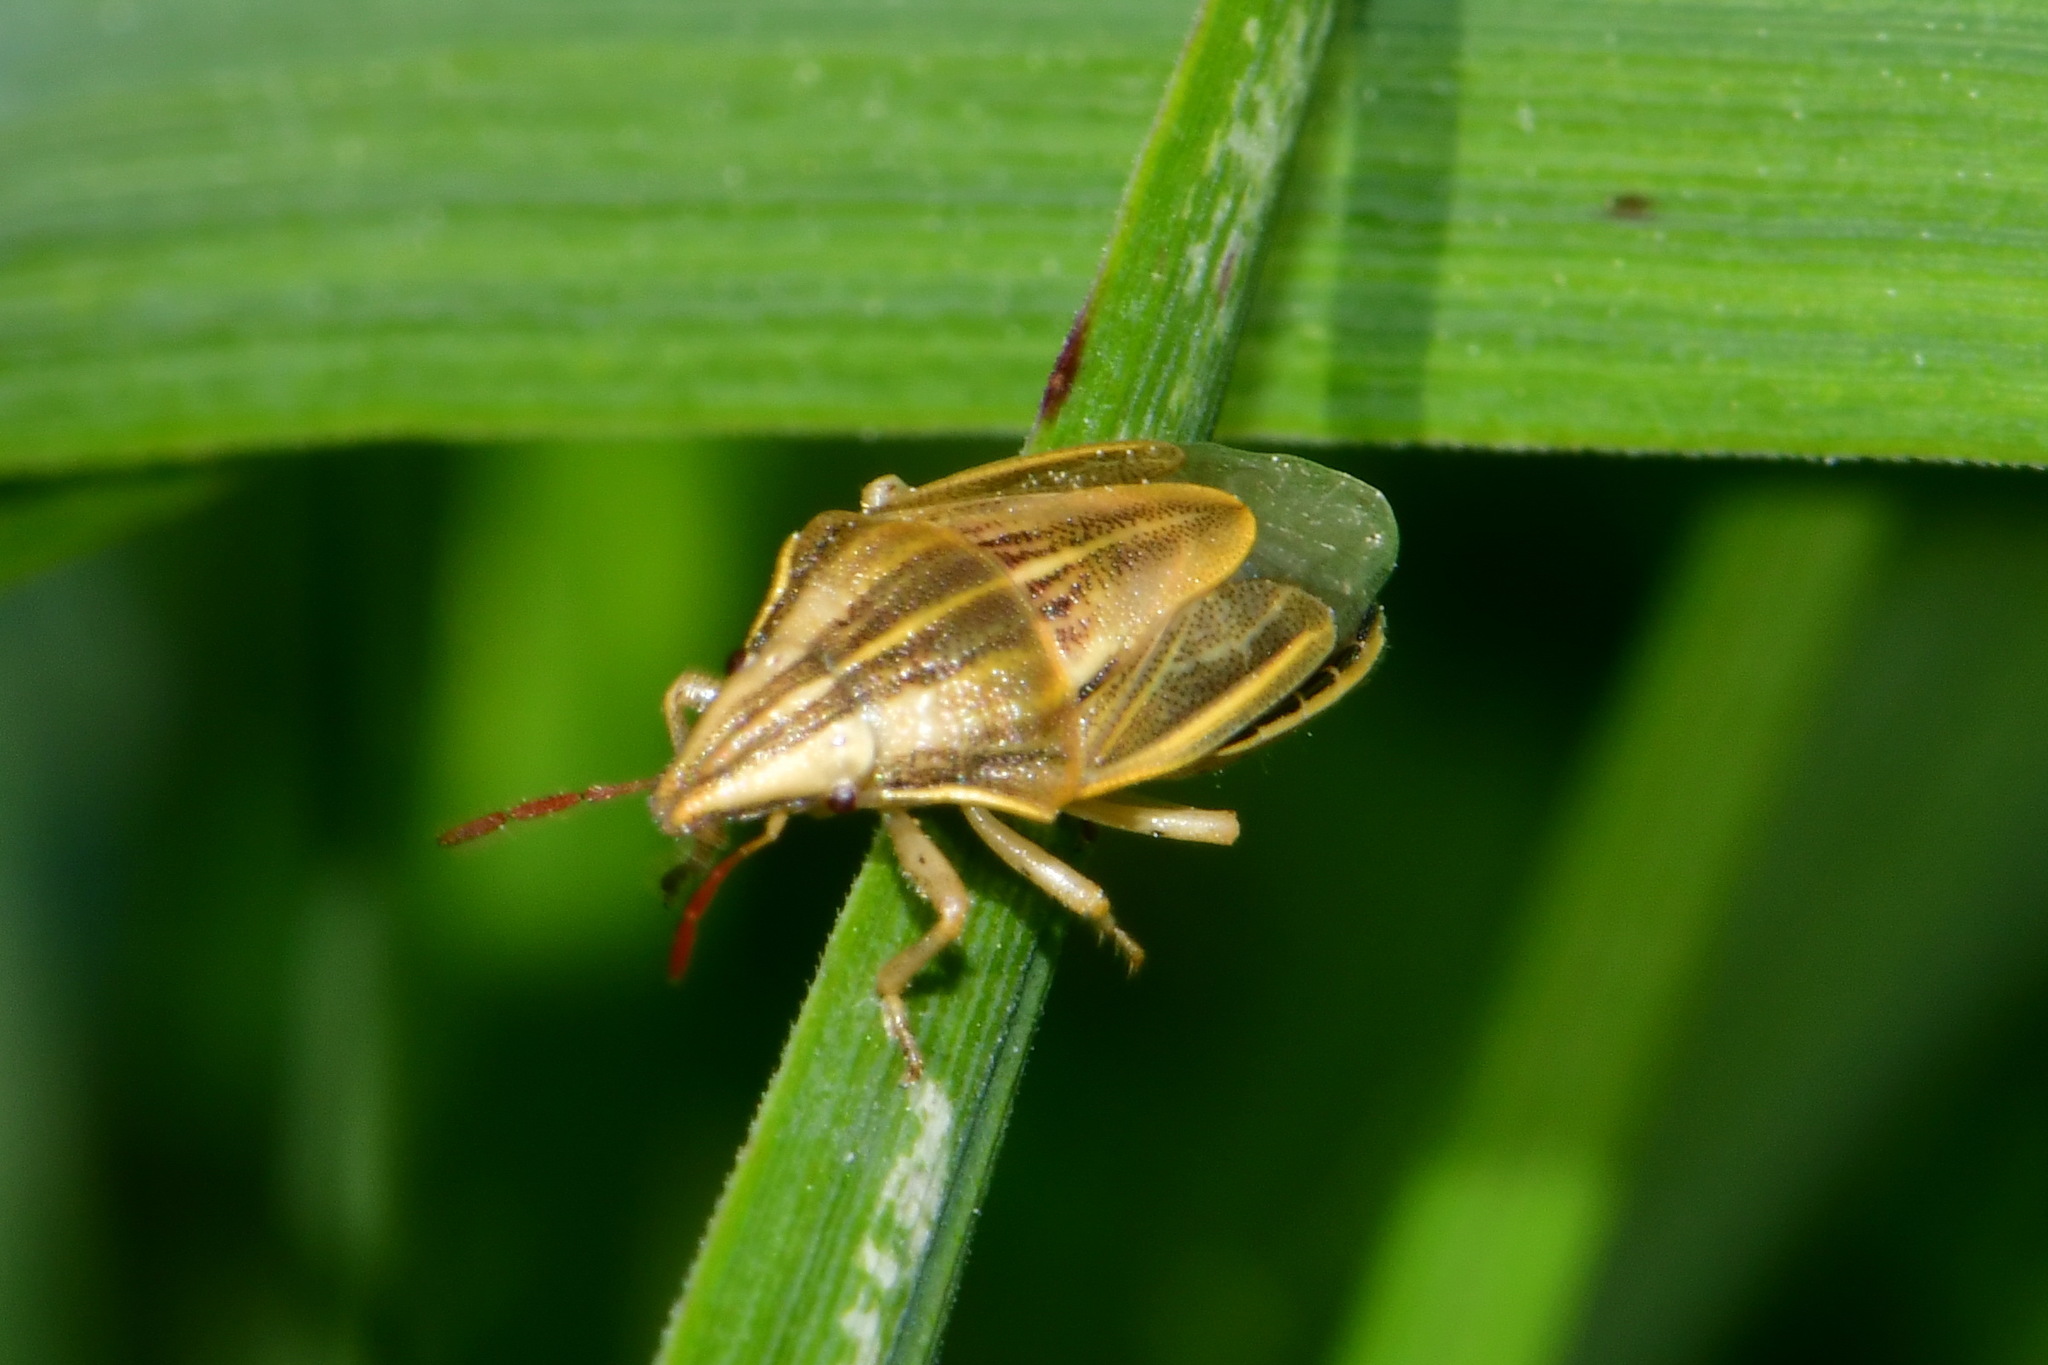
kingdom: Animalia
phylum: Arthropoda
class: Insecta
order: Hemiptera
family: Pentatomidae
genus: Aelia
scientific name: Aelia acuminata
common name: Bishop's mitre
